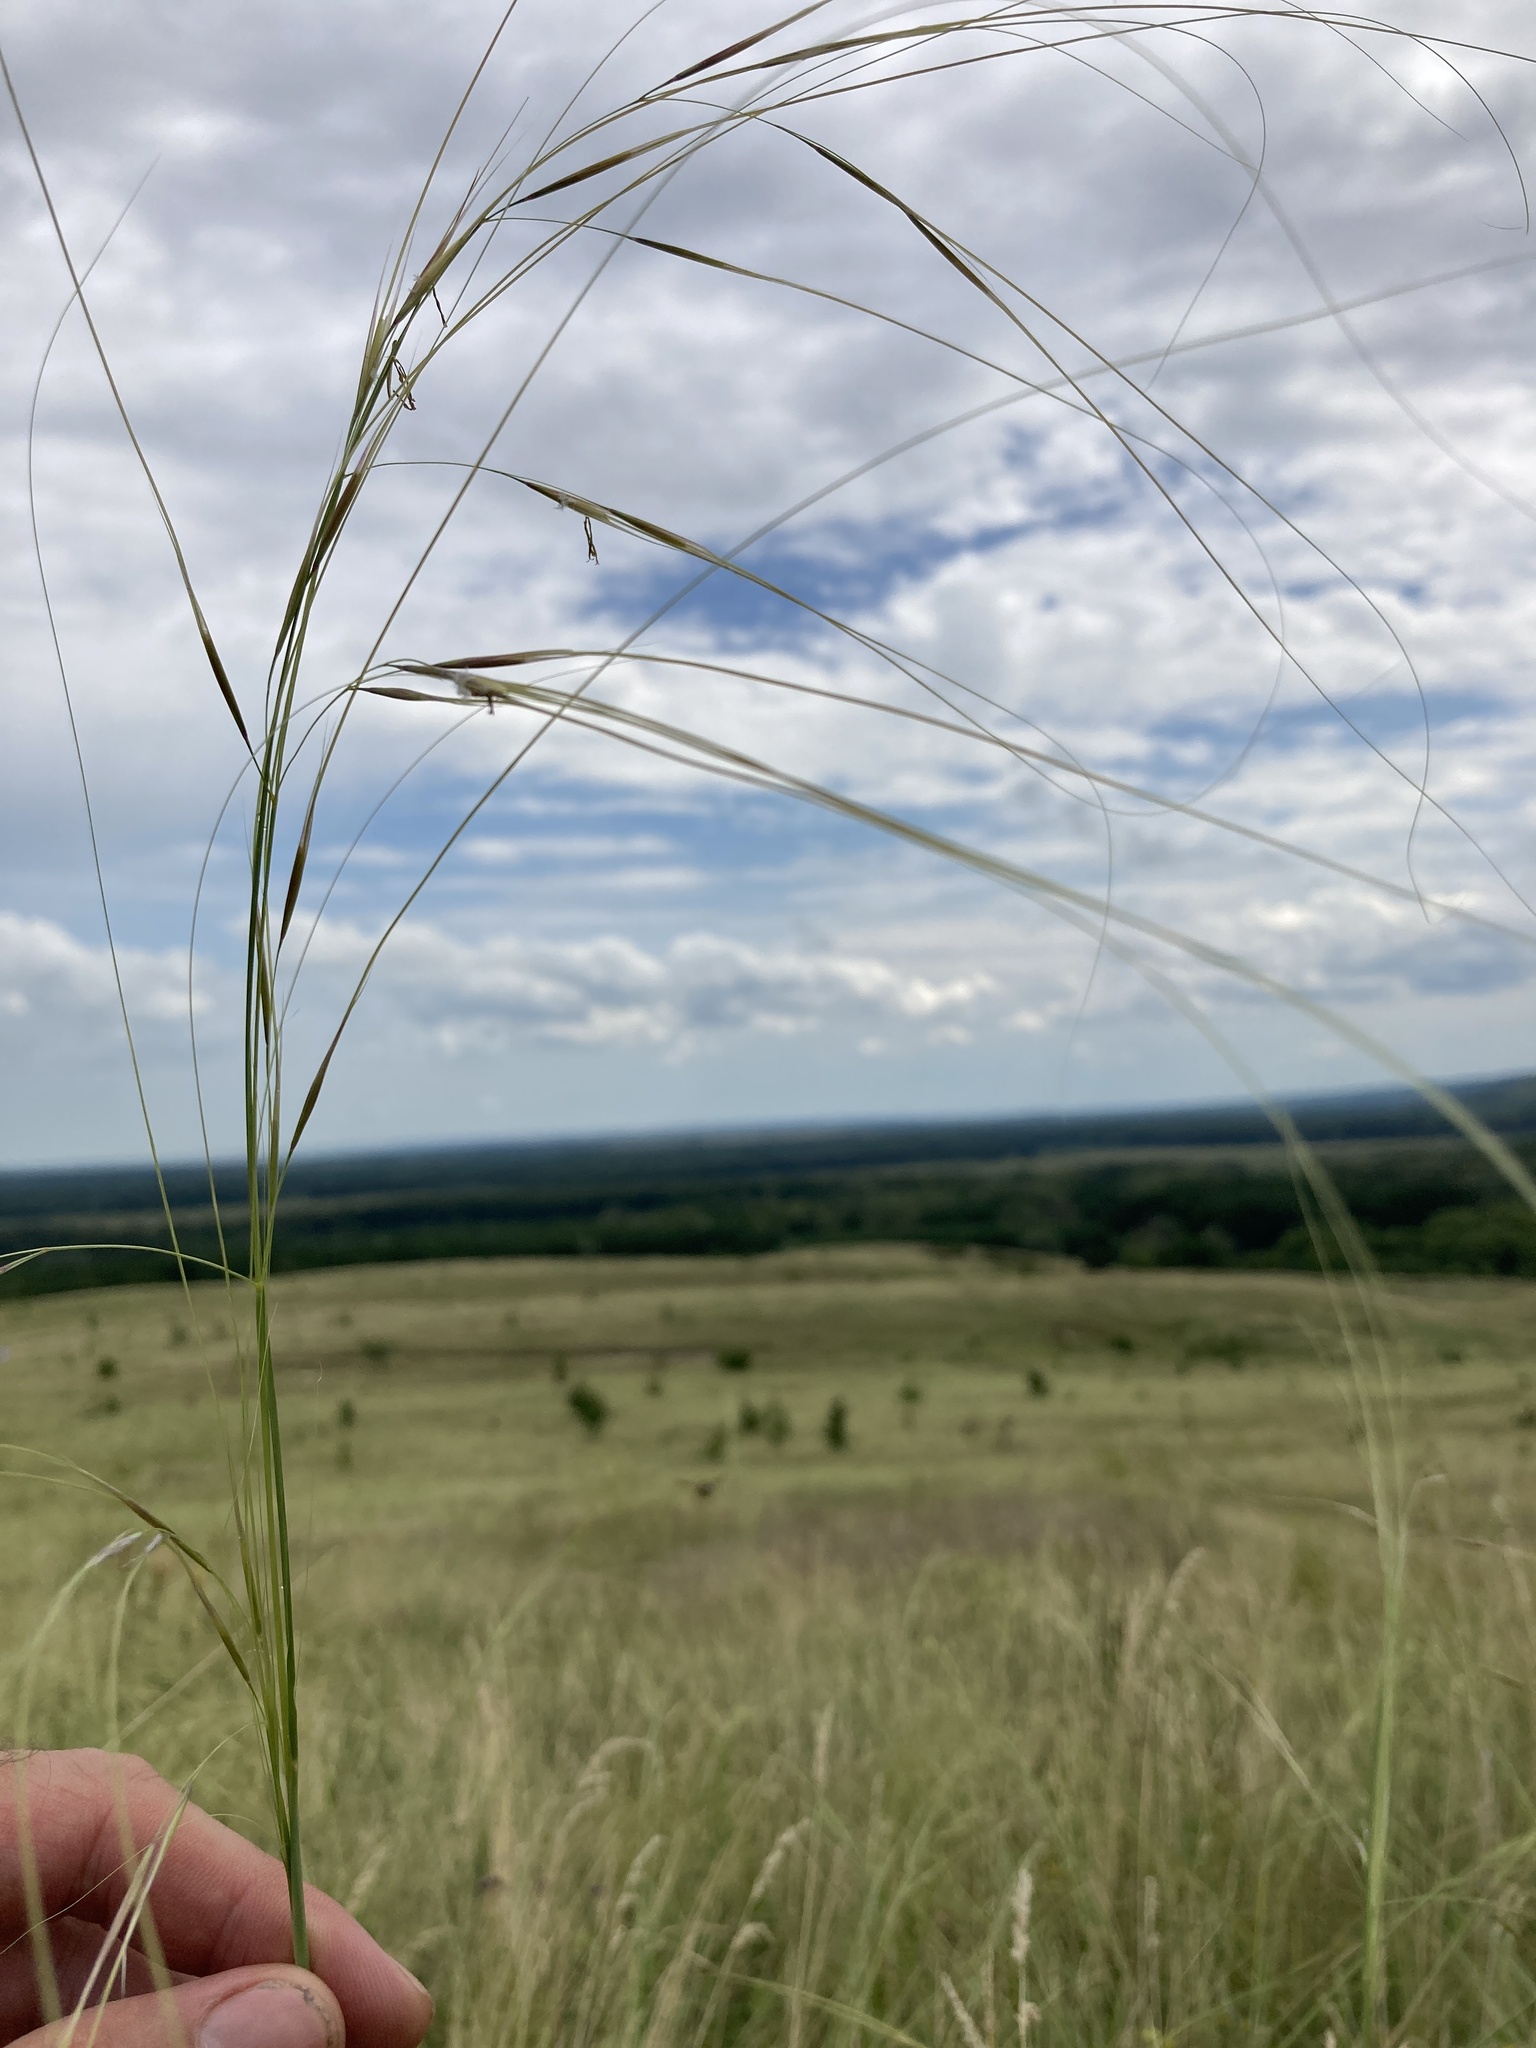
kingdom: Plantae
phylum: Tracheophyta
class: Liliopsida
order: Poales
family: Poaceae
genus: Stipa
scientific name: Stipa capillata
